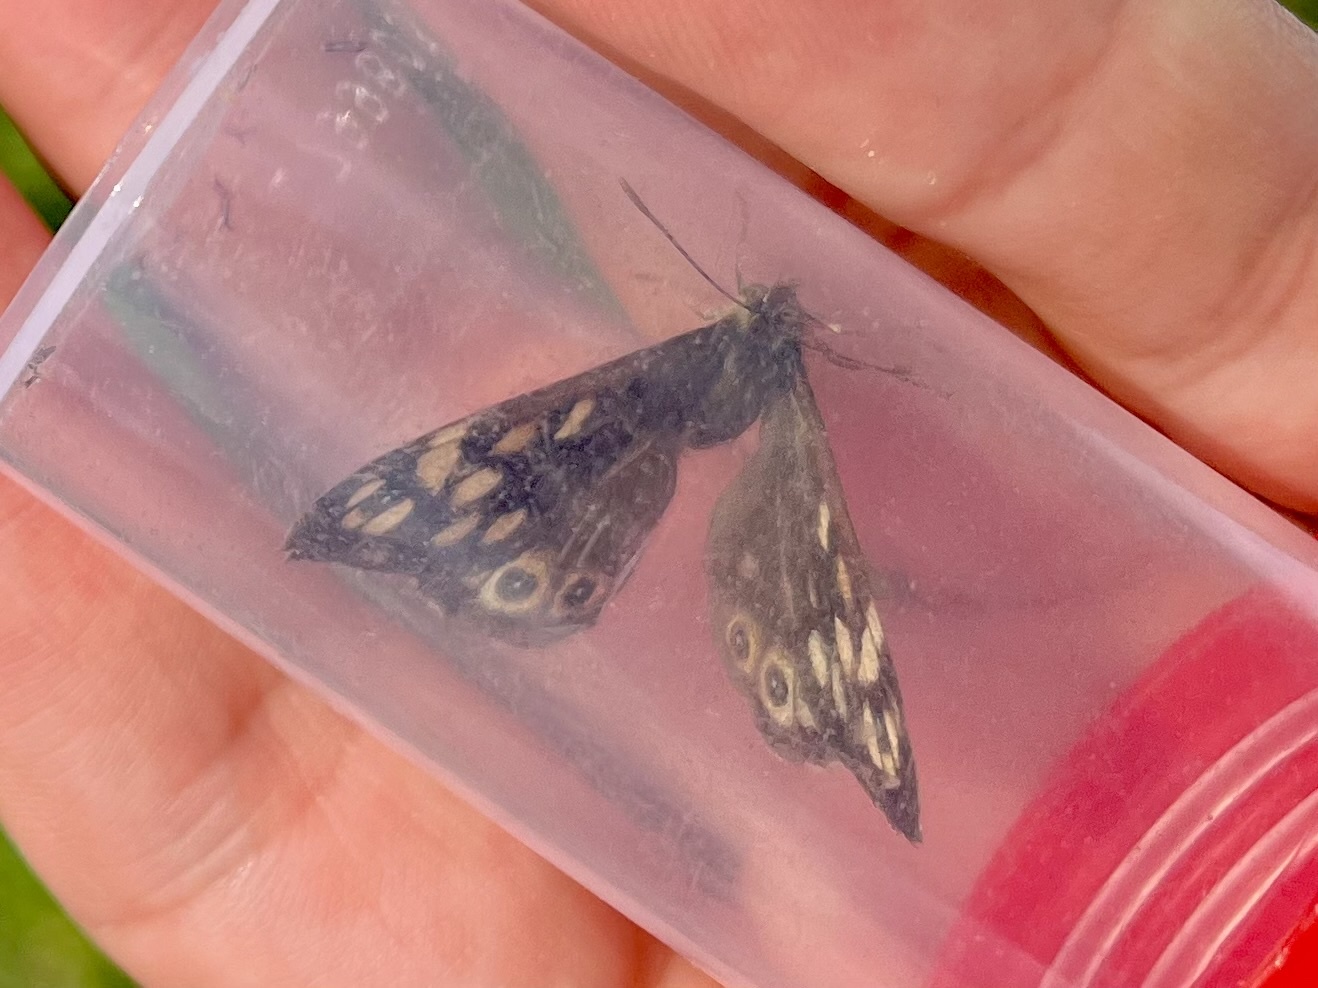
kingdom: Animalia
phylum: Arthropoda
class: Insecta
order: Lepidoptera
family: Nymphalidae
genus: Pararge
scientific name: Pararge aegeria
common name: Speckled wood
